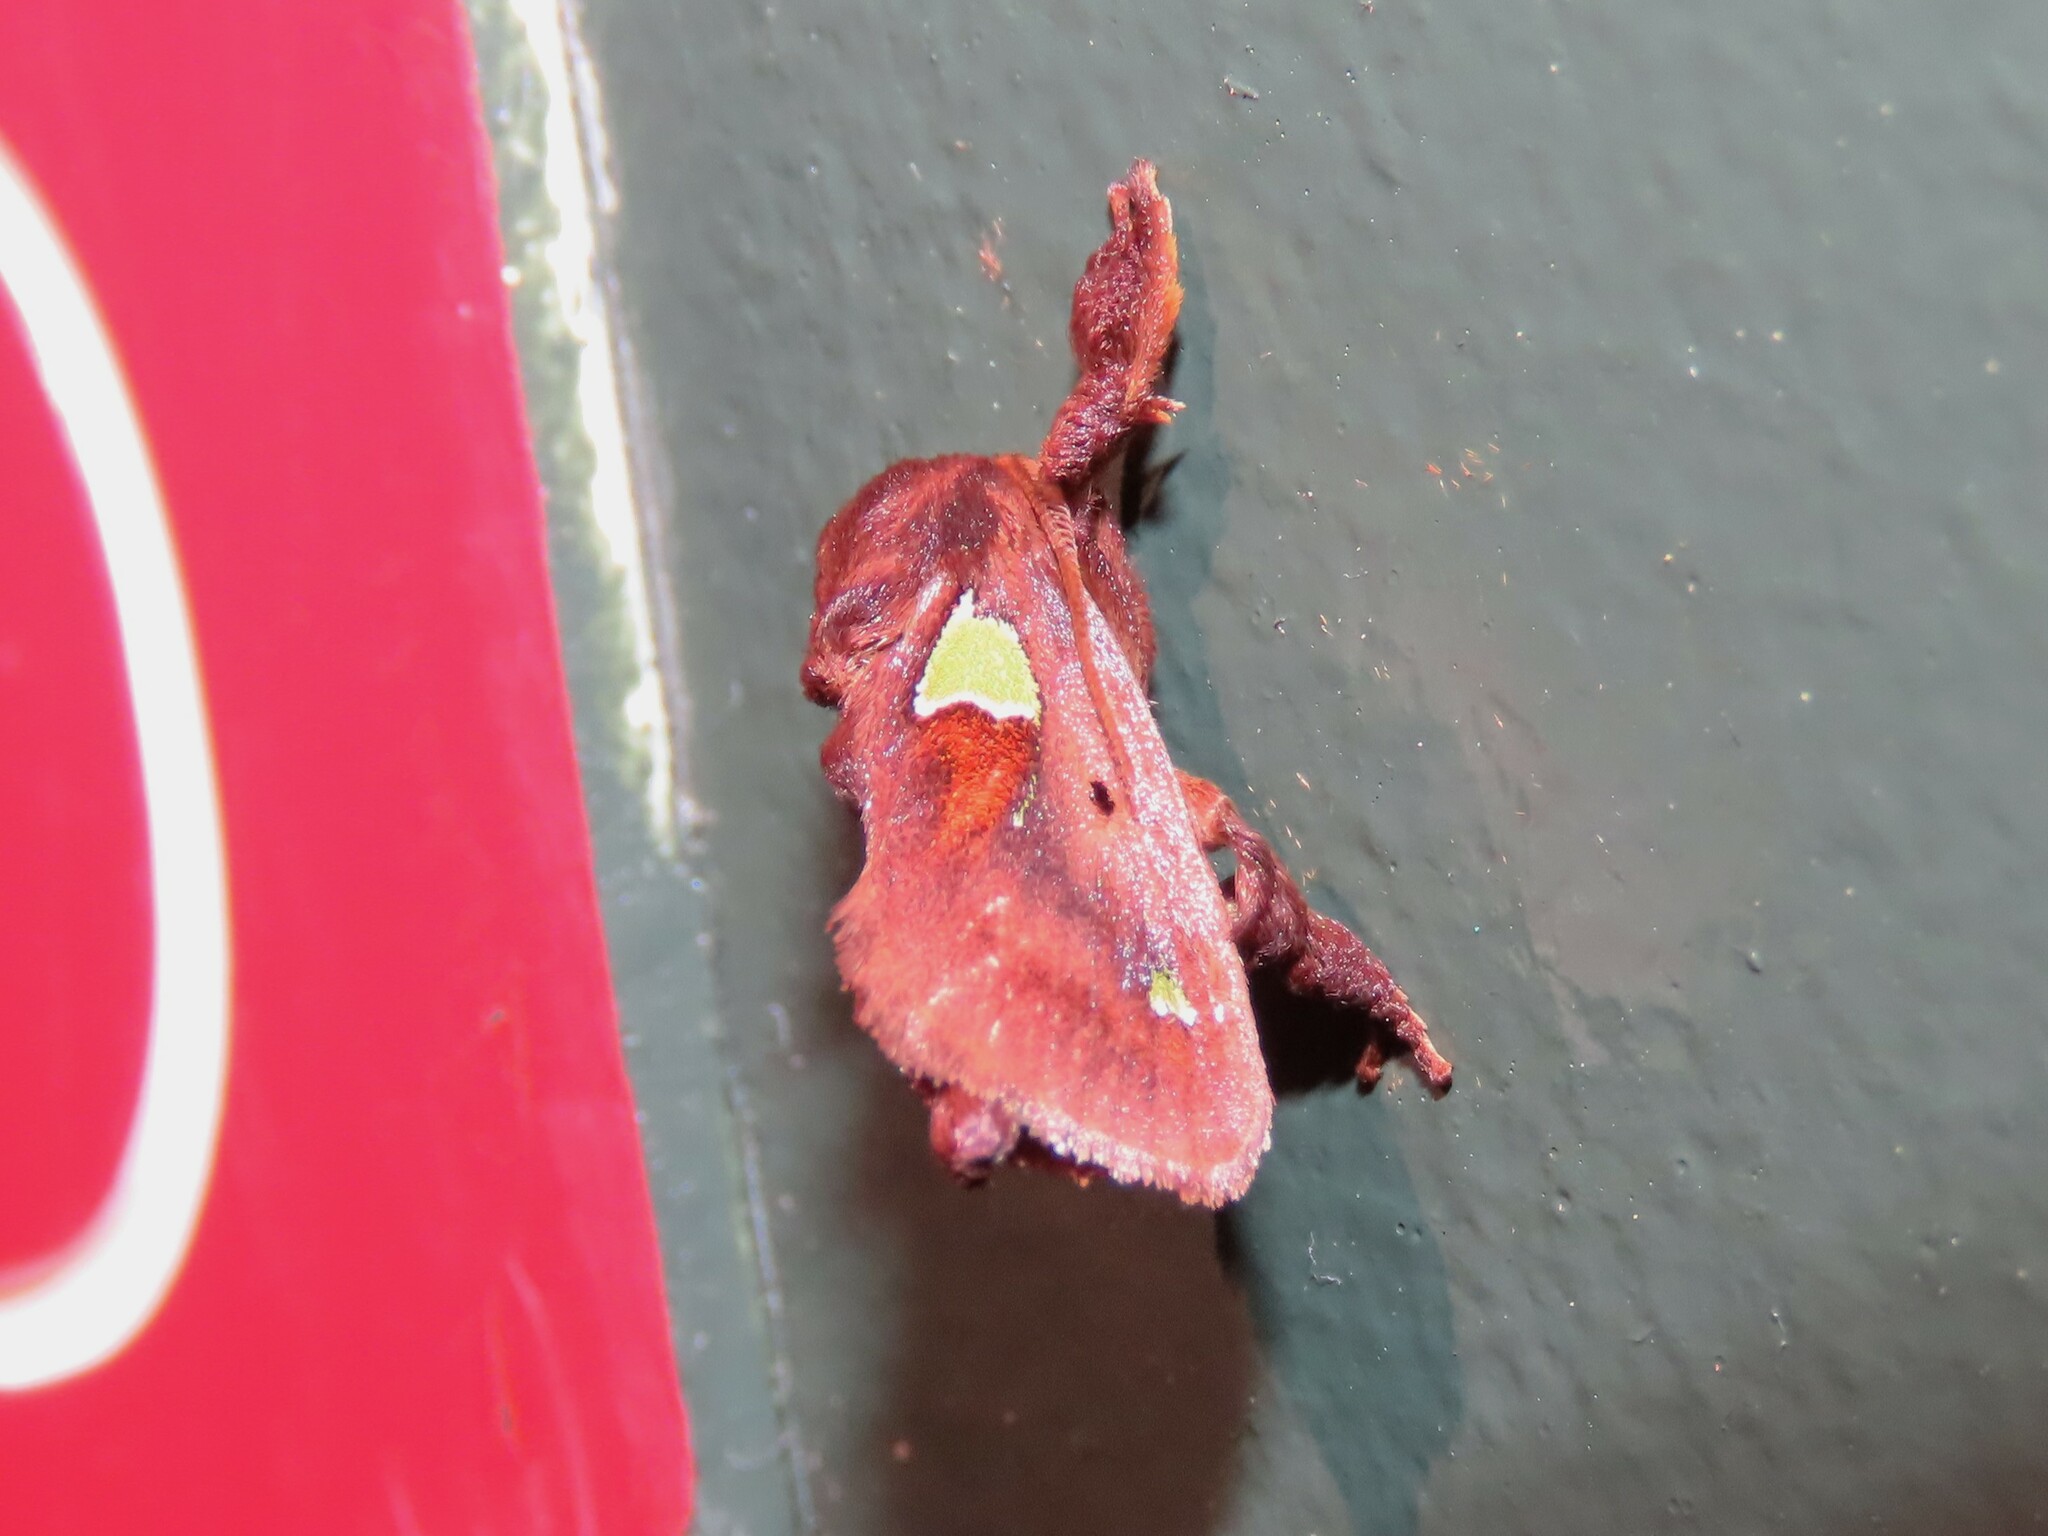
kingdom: Animalia
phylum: Arthropoda
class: Insecta
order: Lepidoptera
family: Limacodidae
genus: Euclea
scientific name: Euclea delphinii
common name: Spiny oak-slug moth
